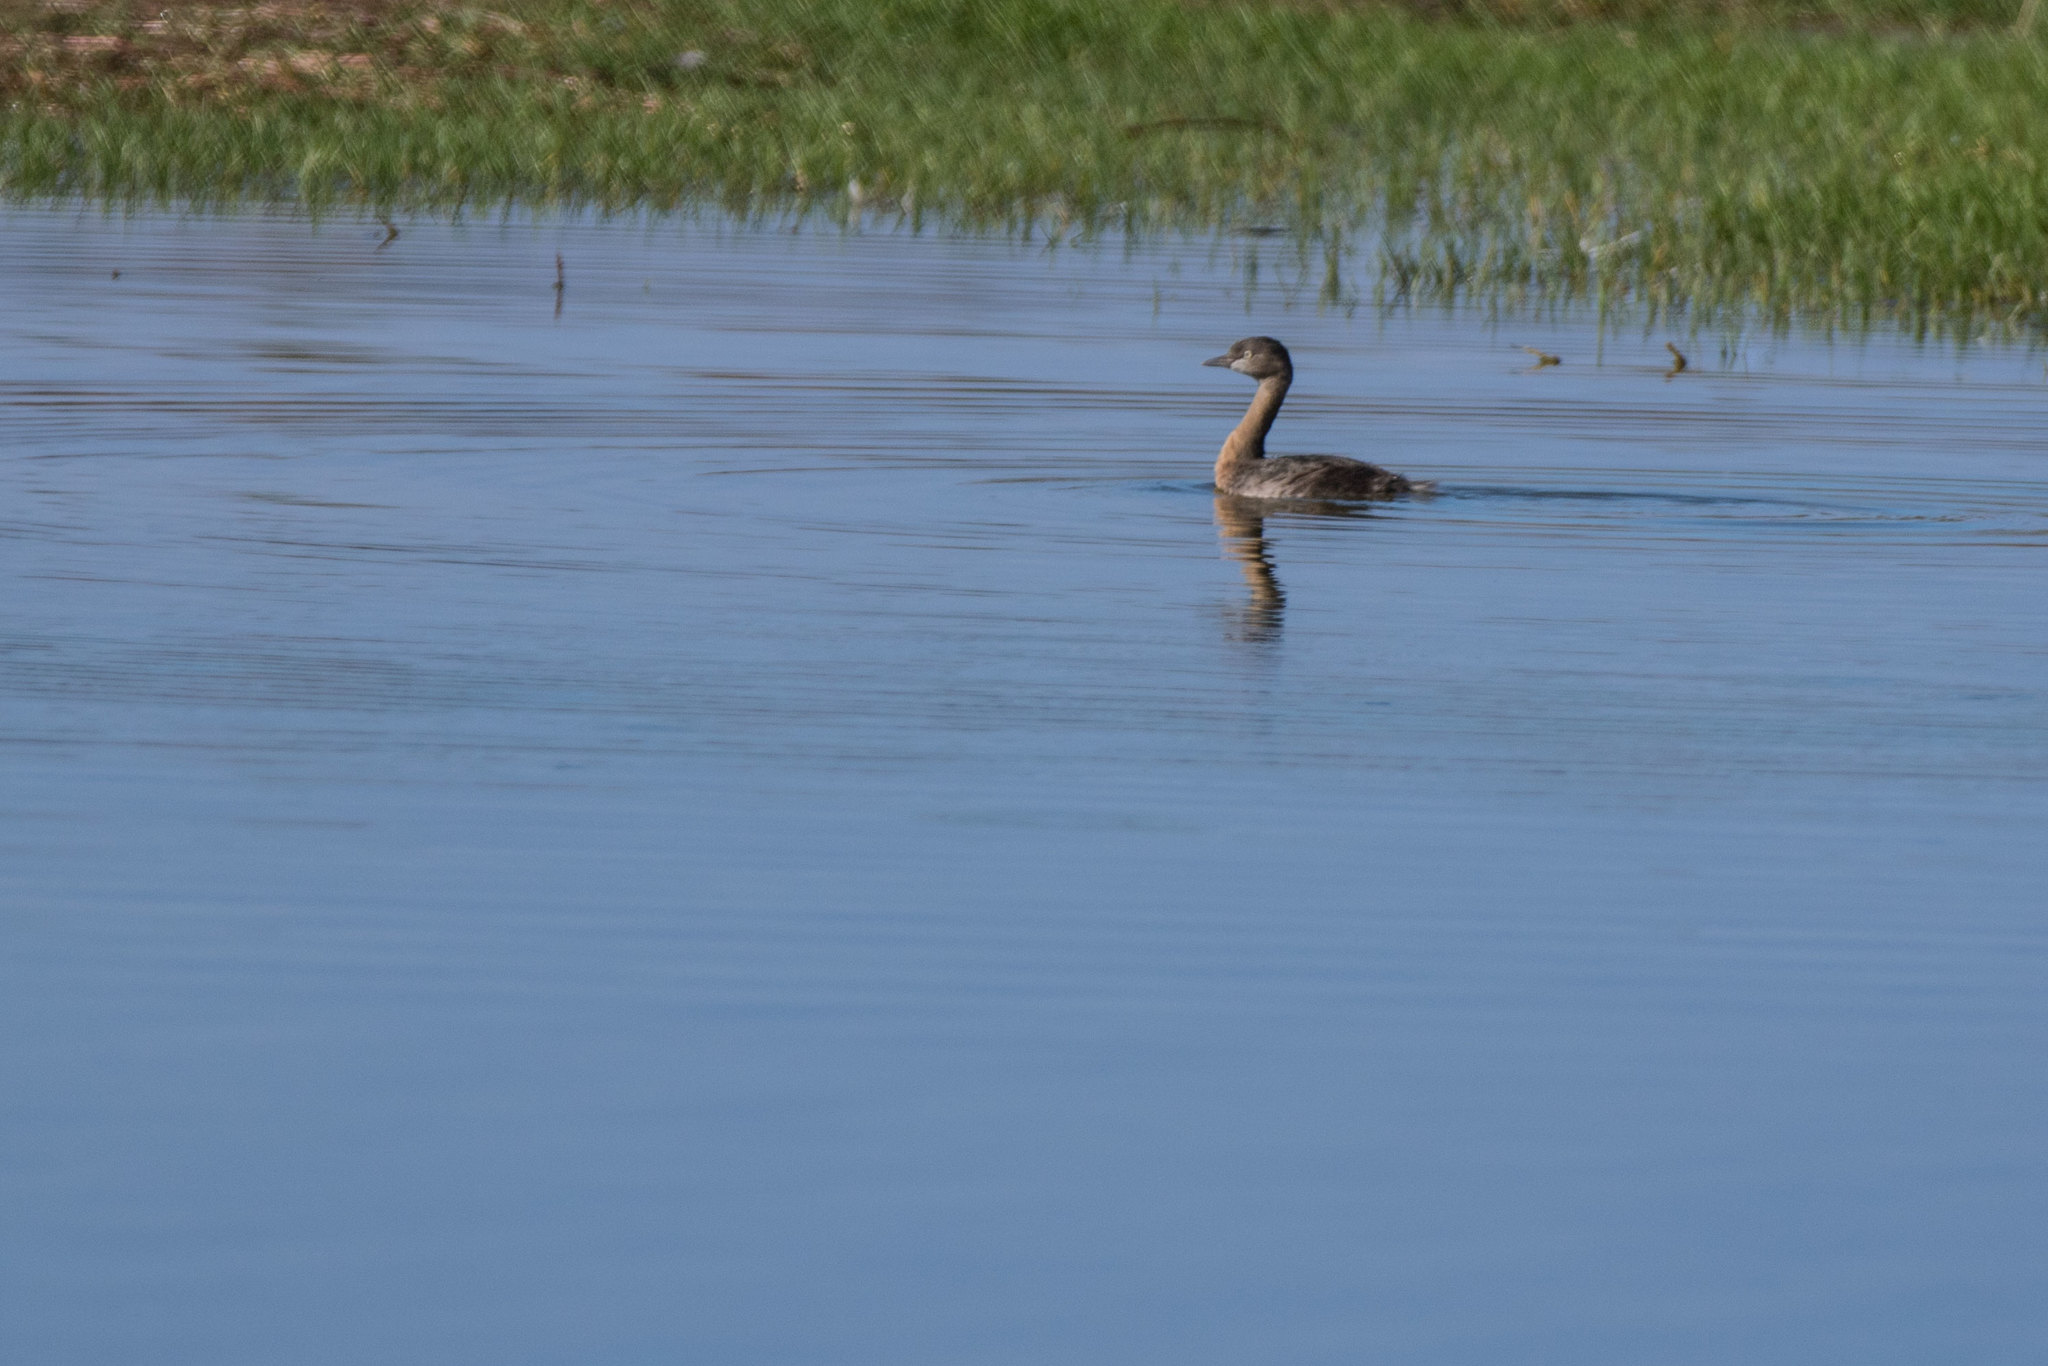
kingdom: Animalia
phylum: Chordata
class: Aves
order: Podicipediformes
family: Podicipedidae
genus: Poliocephalus
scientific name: Poliocephalus rufopectus
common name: New zealand grebe
